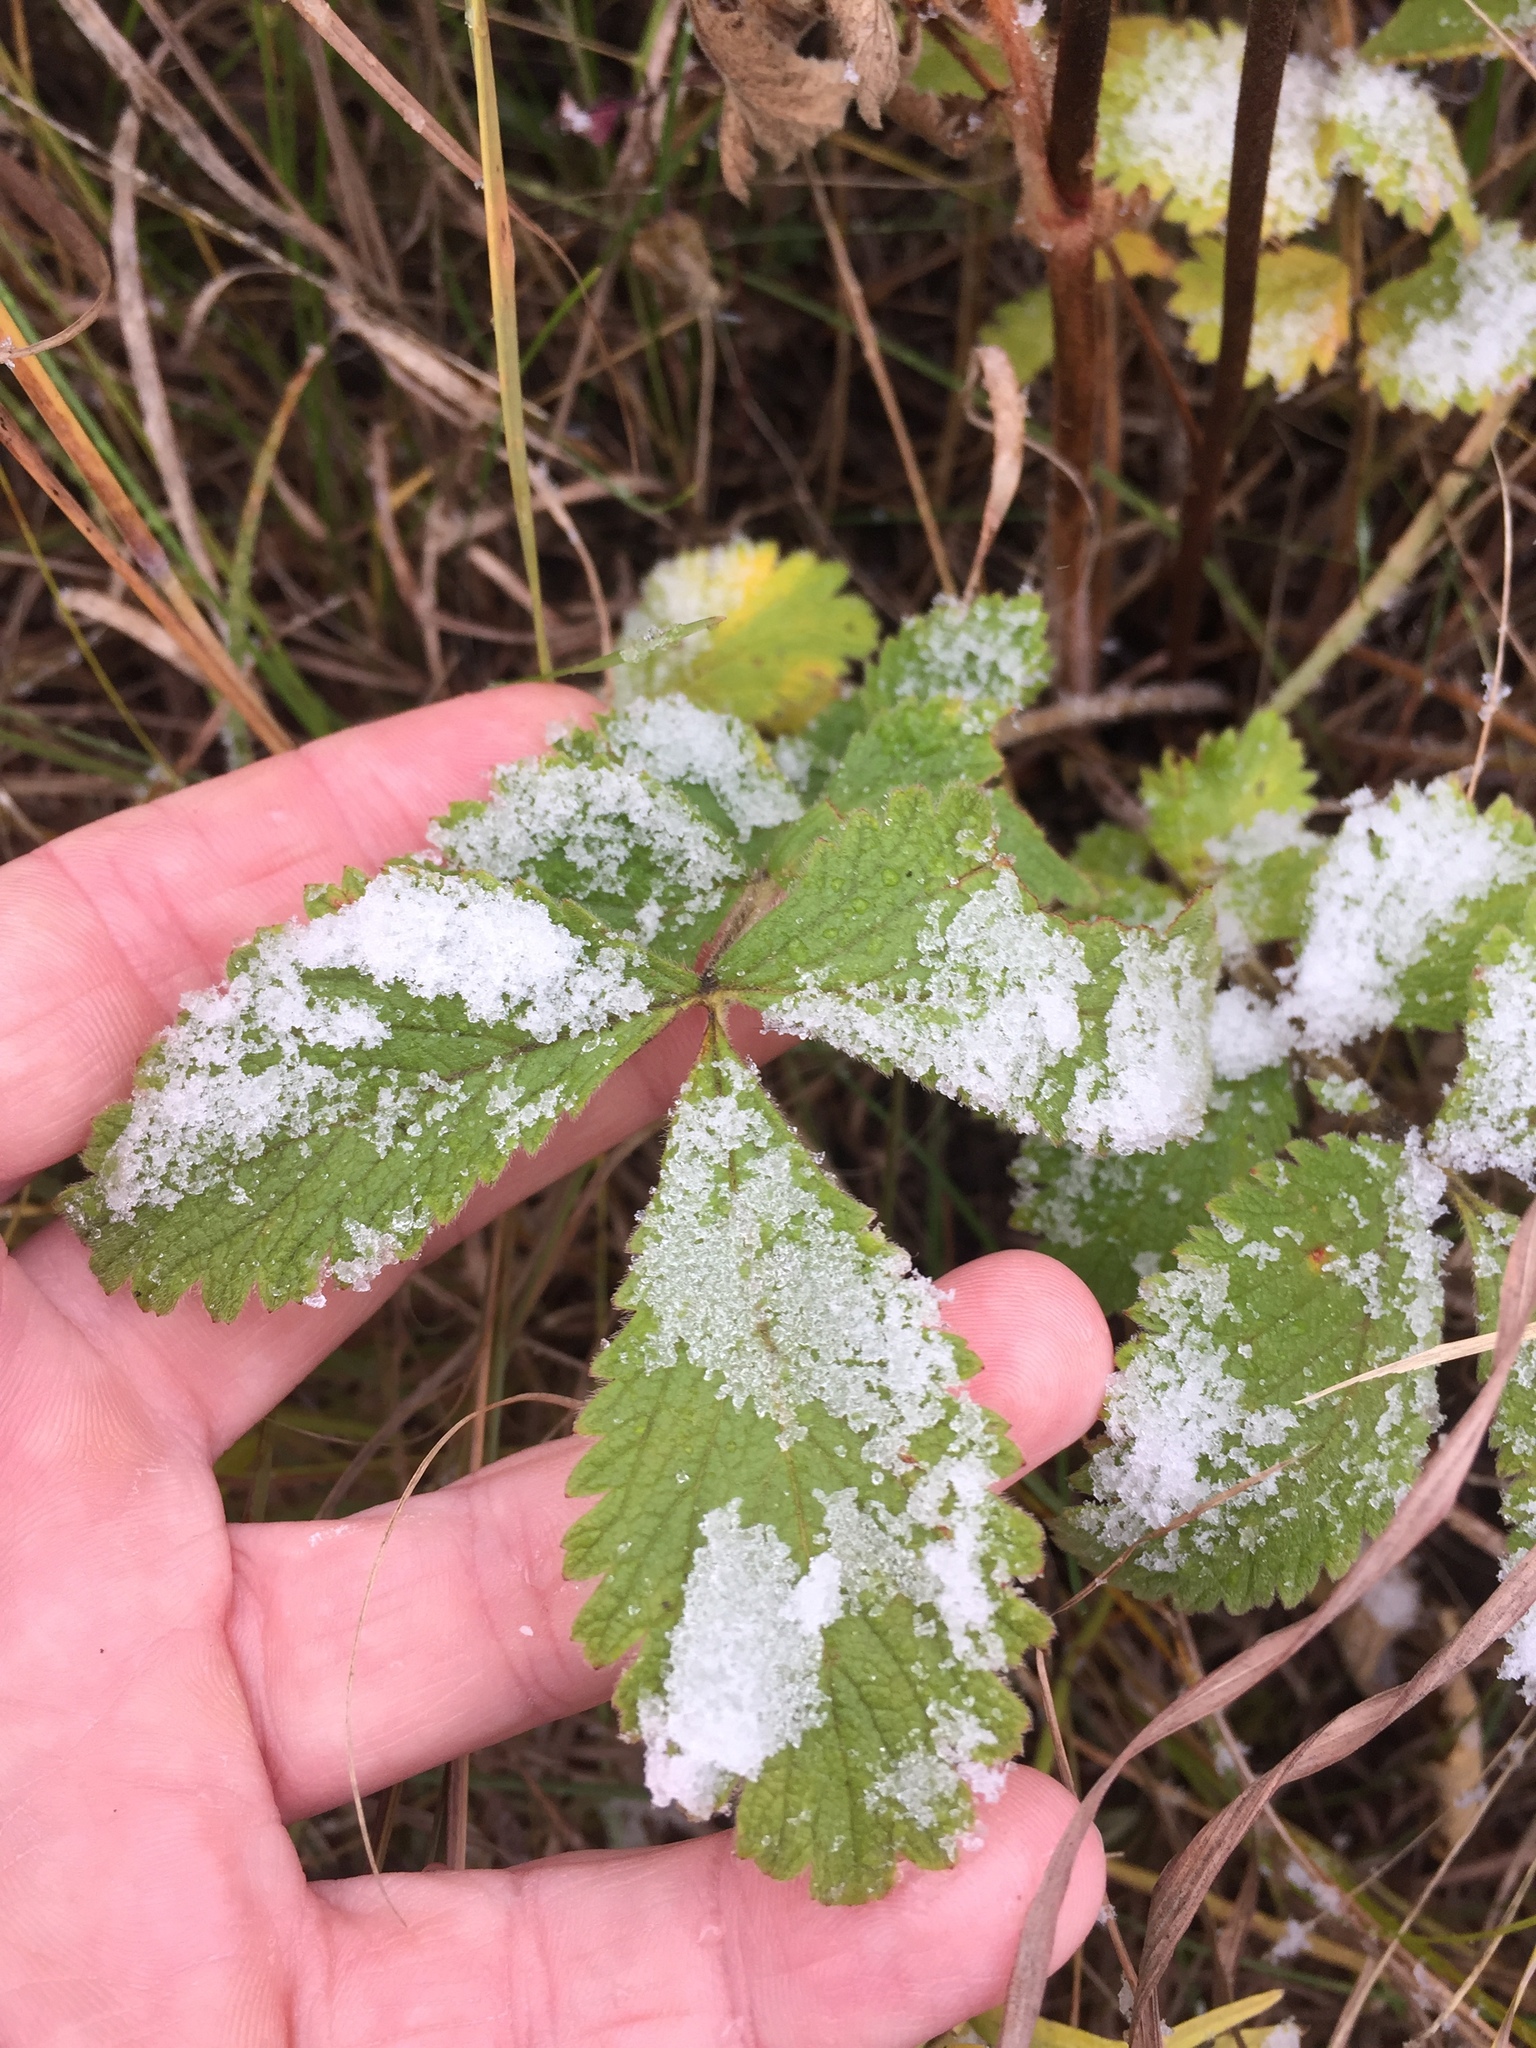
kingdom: Plantae
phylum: Tracheophyta
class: Magnoliopsida
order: Rosales
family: Rosaceae
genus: Drymocallis
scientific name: Drymocallis arguta
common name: Tall cinquefoil
